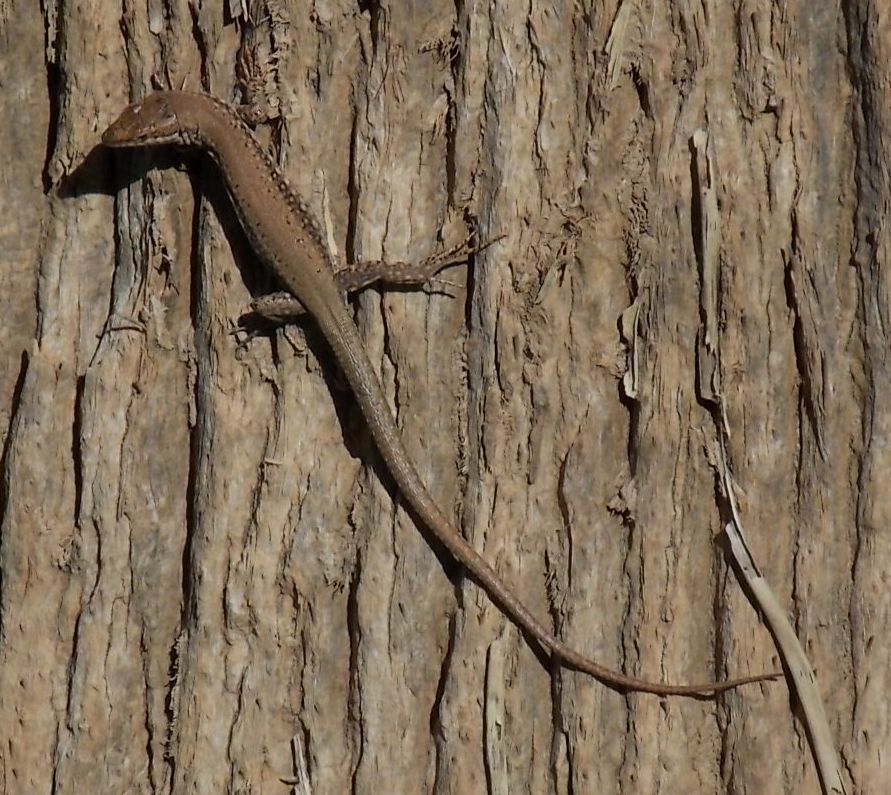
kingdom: Animalia
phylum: Chordata
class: Squamata
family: Lacertidae
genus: Podarcis
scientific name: Podarcis vaucheri
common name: Vaucher's wall lizard
